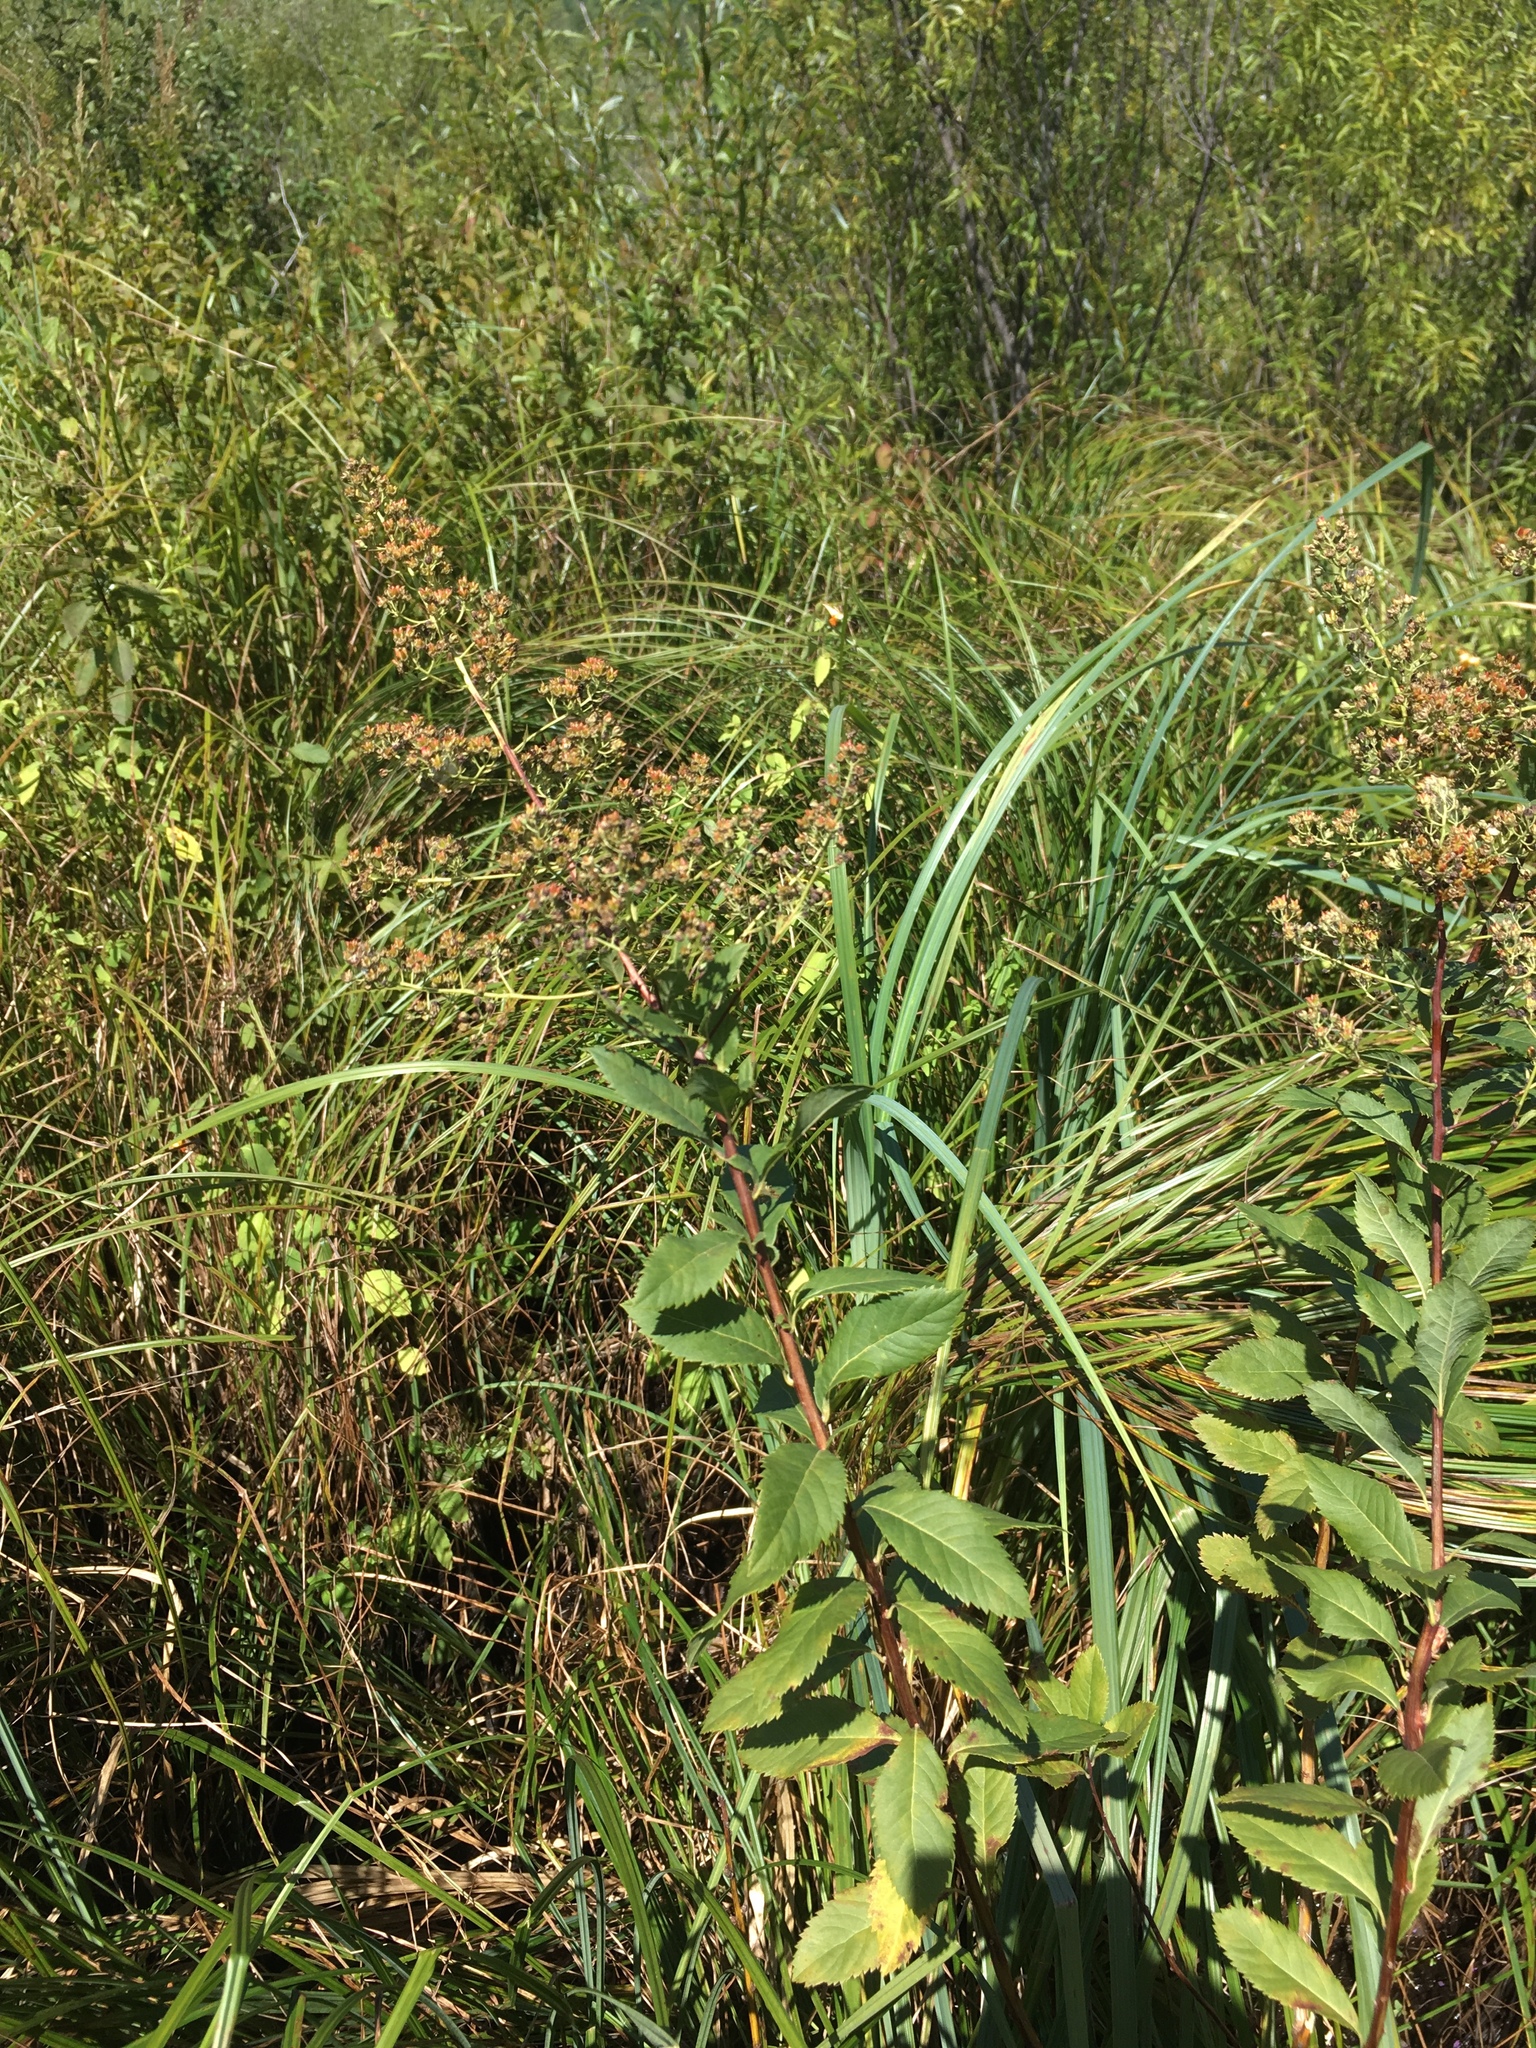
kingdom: Plantae
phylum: Tracheophyta
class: Magnoliopsida
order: Rosales
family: Rosaceae
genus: Spiraea
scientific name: Spiraea alba
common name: Pale bridewort
